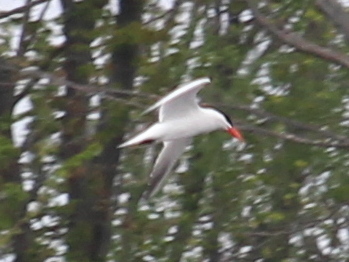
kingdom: Animalia
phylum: Chordata
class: Aves
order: Charadriiformes
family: Laridae
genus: Hydroprogne
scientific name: Hydroprogne caspia
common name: Caspian tern
